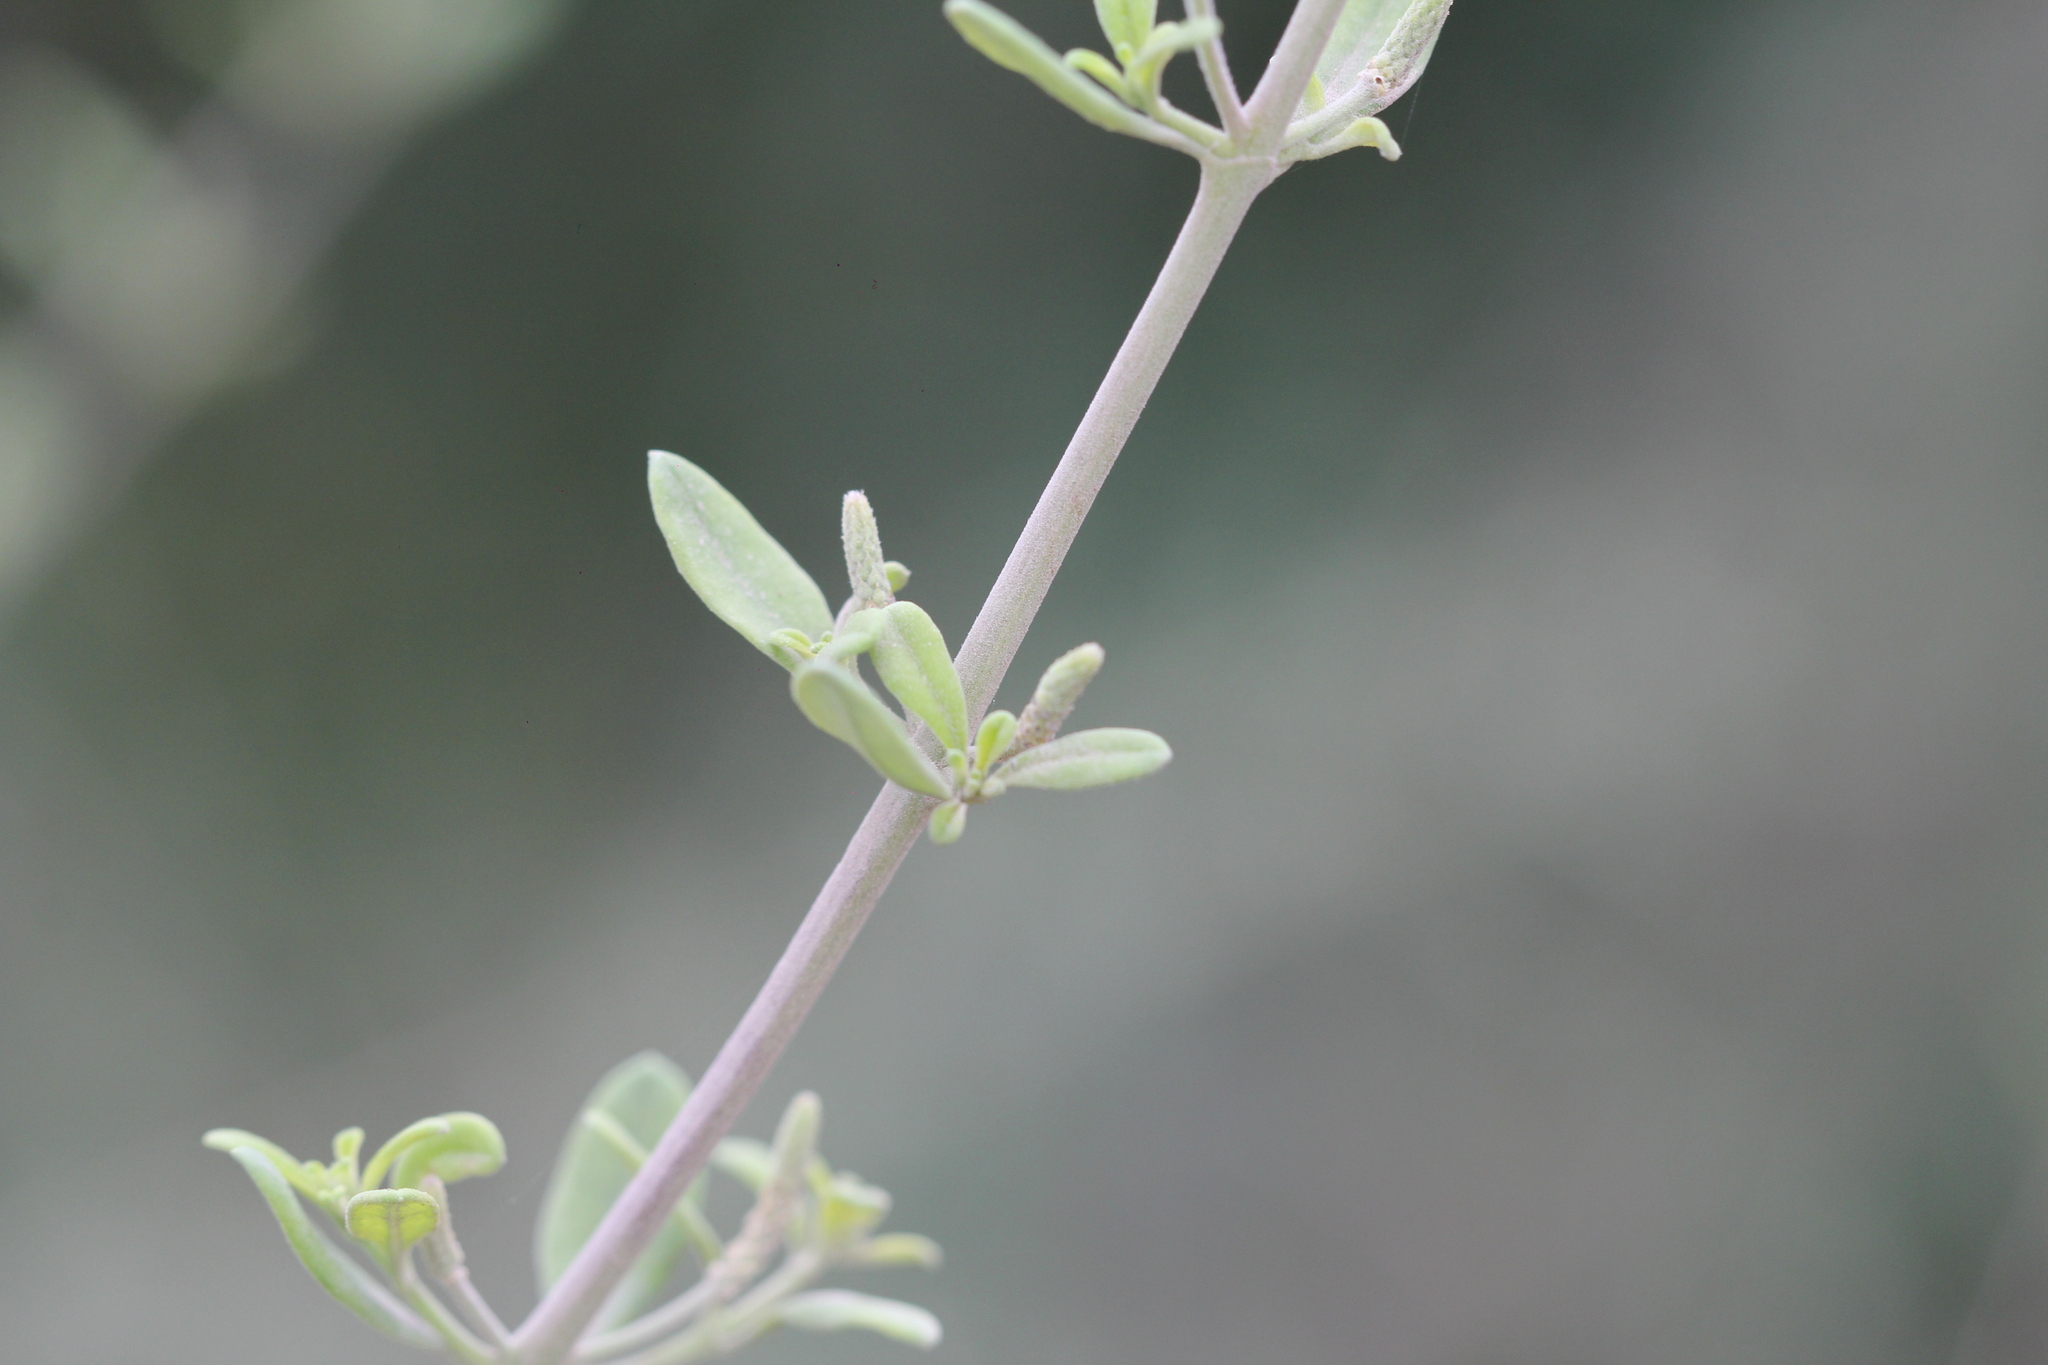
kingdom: Plantae
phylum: Tracheophyta
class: Magnoliopsida
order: Lamiales
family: Verbenaceae
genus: Aloysia
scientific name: Aloysia gratissima
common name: Common bee-brush
